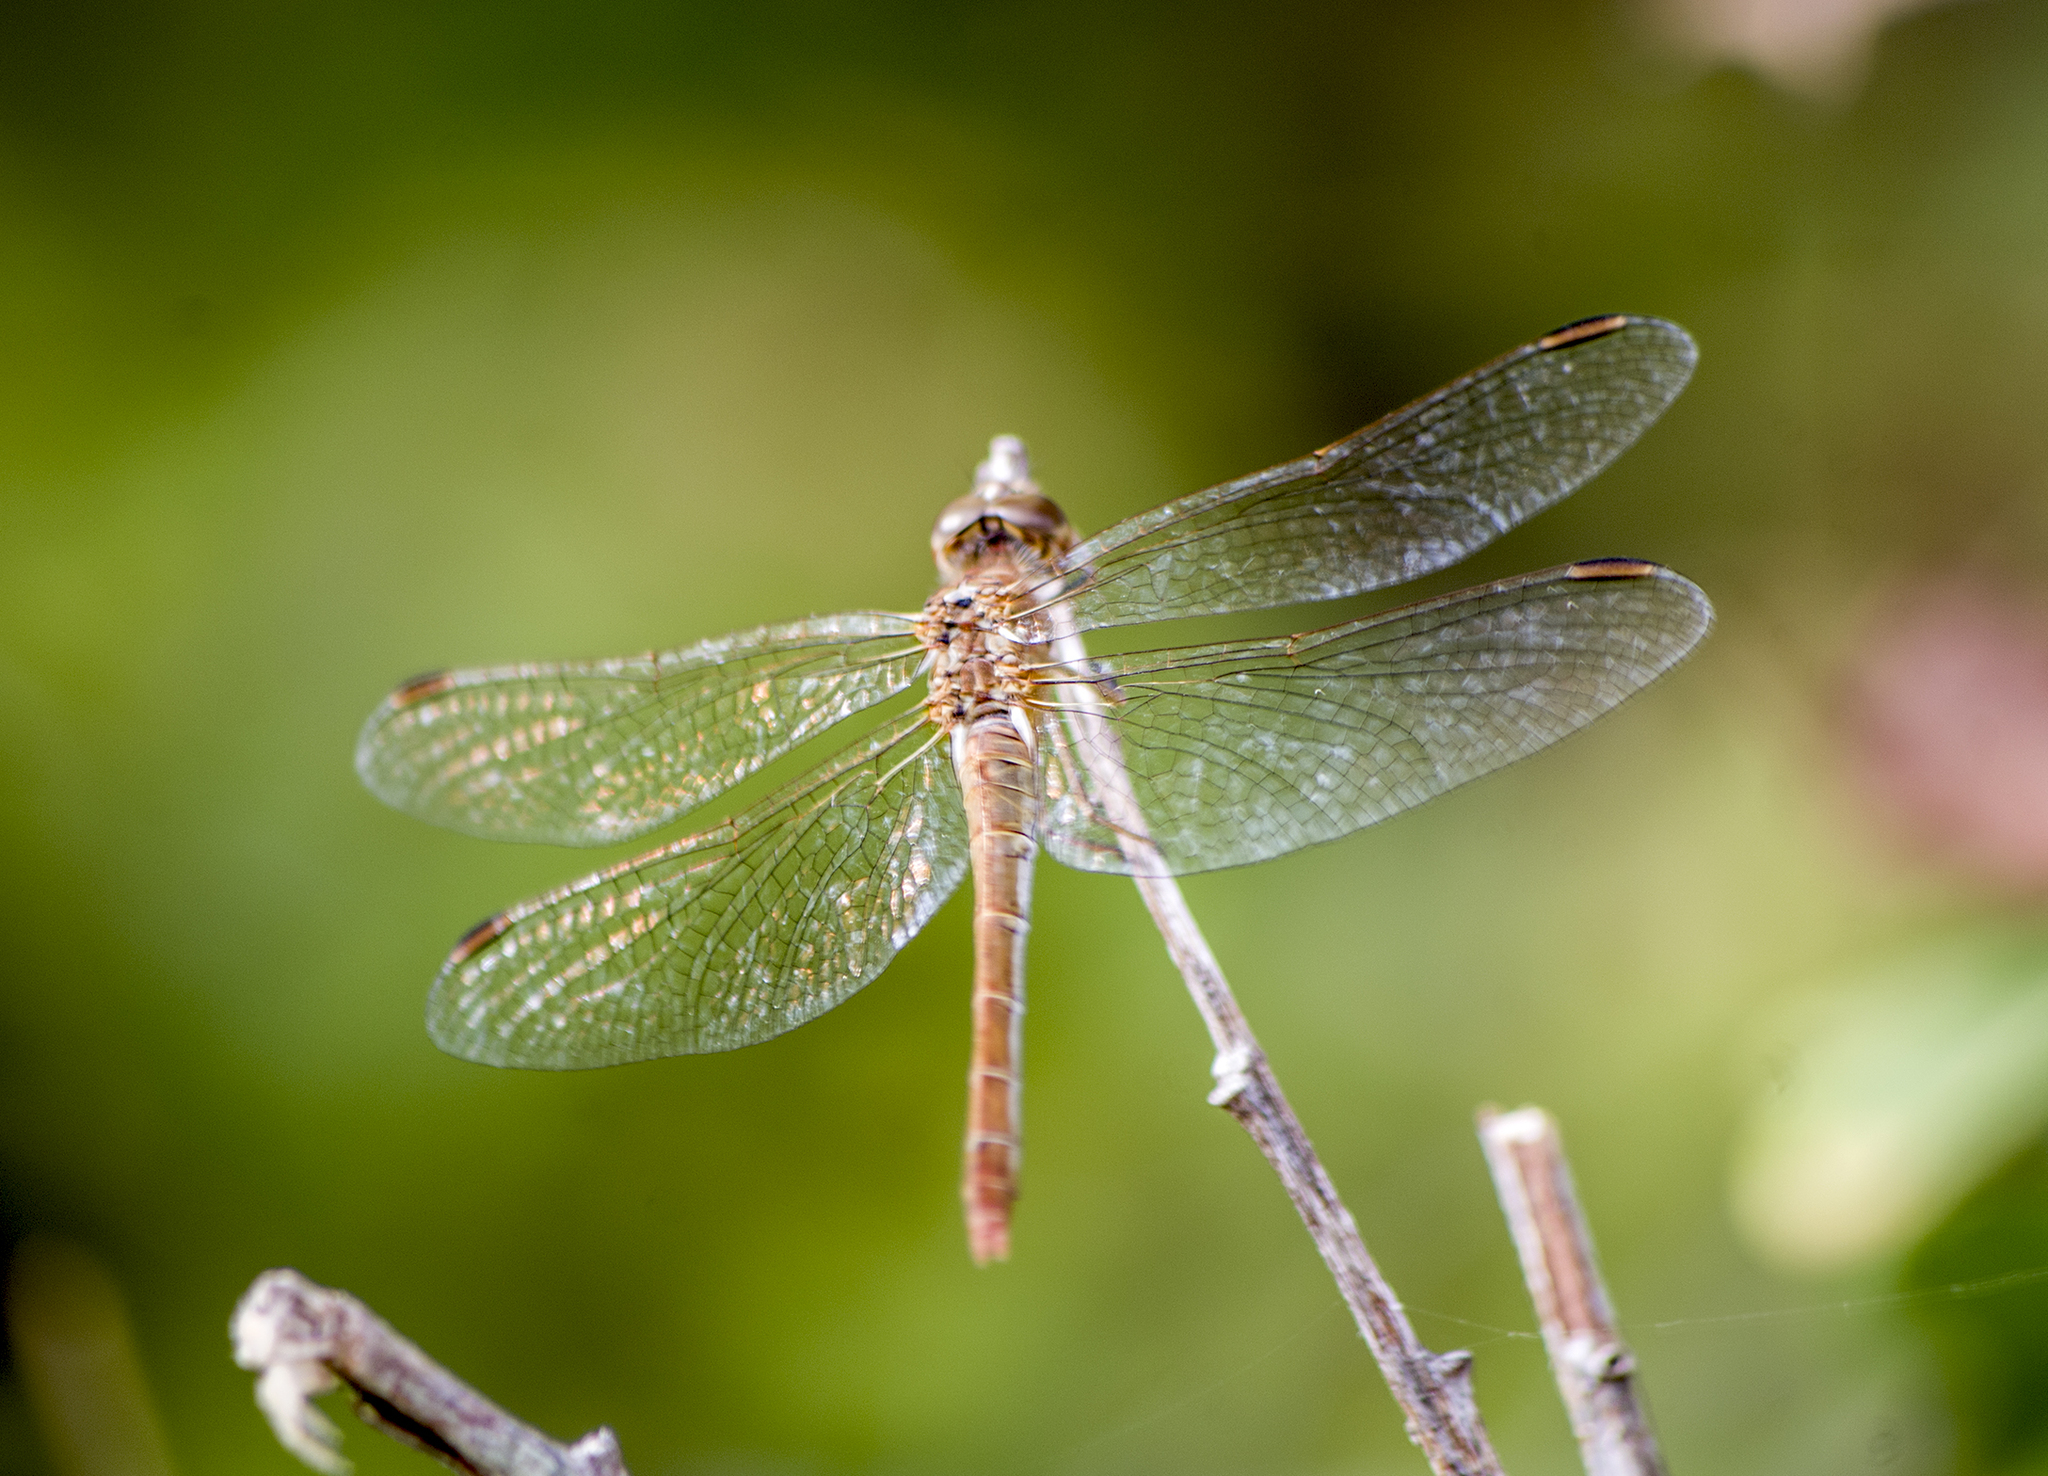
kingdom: Animalia
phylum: Arthropoda
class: Insecta
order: Odonata
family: Libellulidae
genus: Sympetrum
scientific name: Sympetrum meridionale
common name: Southern darter
